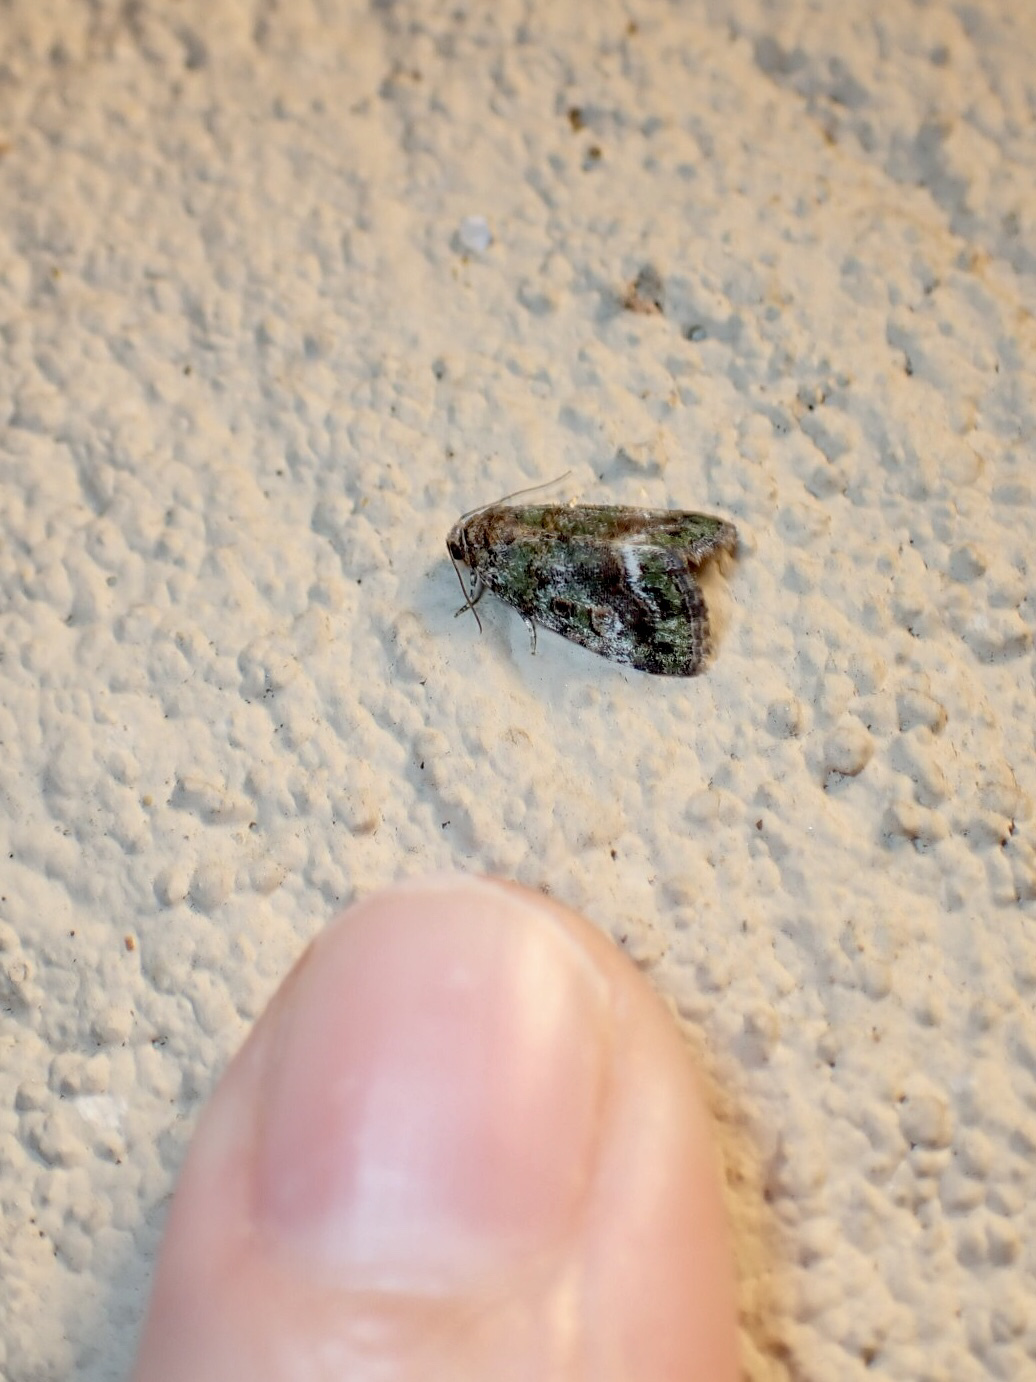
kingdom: Animalia
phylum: Arthropoda
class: Insecta
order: Lepidoptera
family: Noctuidae
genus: Lithacodia
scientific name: Lithacodia musta
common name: Small mossy glyph
